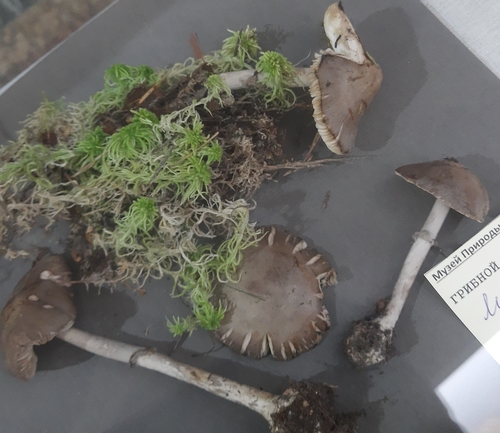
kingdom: Fungi
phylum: Basidiomycota
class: Agaricomycetes
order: Agaricales
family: Amanitaceae
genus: Amanita
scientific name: Amanita porphyria
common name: Grey veiled amanita
